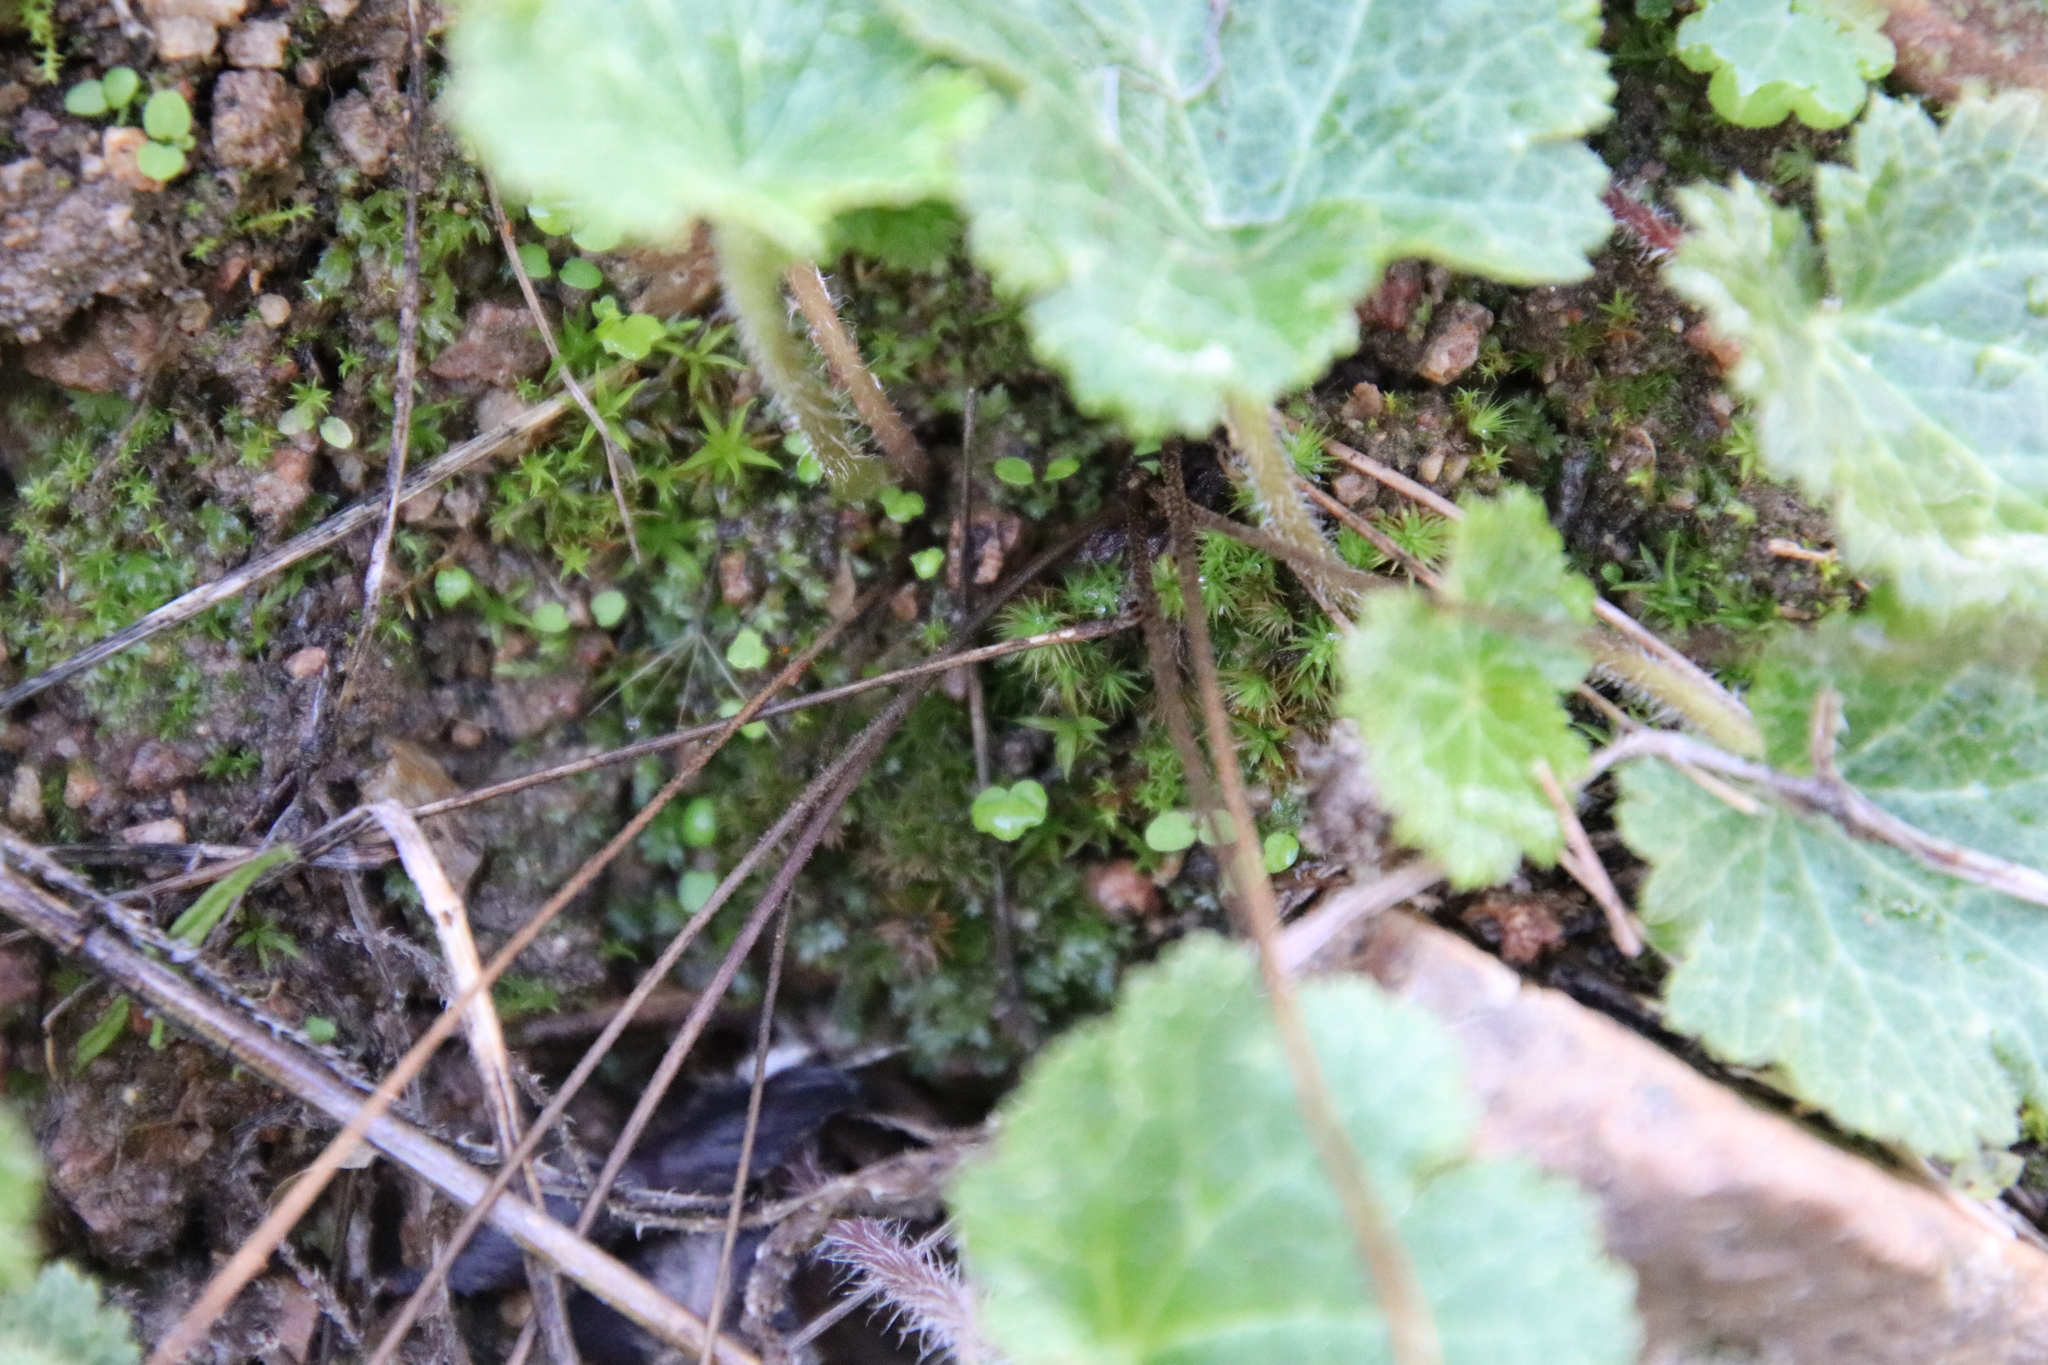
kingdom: Plantae
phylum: Tracheophyta
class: Magnoliopsida
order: Saxifragales
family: Saxifragaceae
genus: Jepsonia
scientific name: Jepsonia parryi
